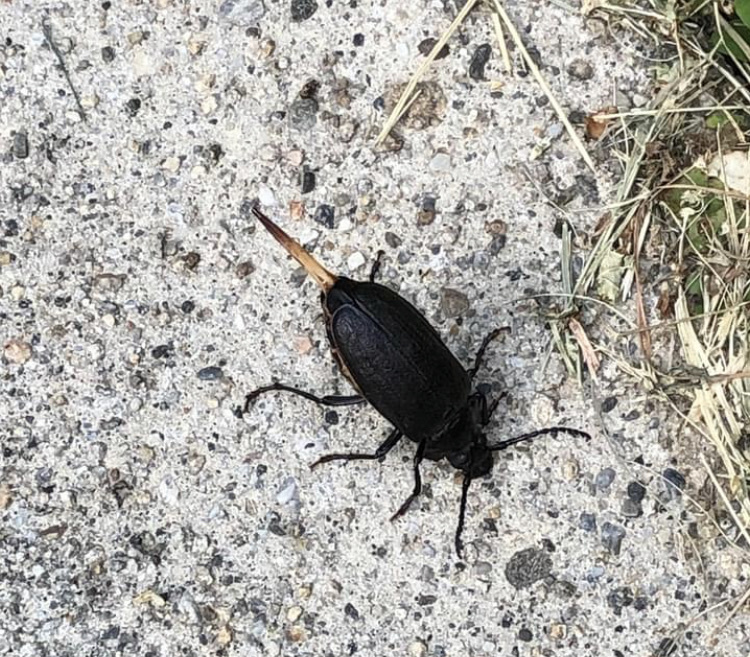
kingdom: Animalia
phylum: Arthropoda
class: Insecta
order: Coleoptera
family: Cerambycidae
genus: Prionus
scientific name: Prionus laticollis
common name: Broad necked prionus
